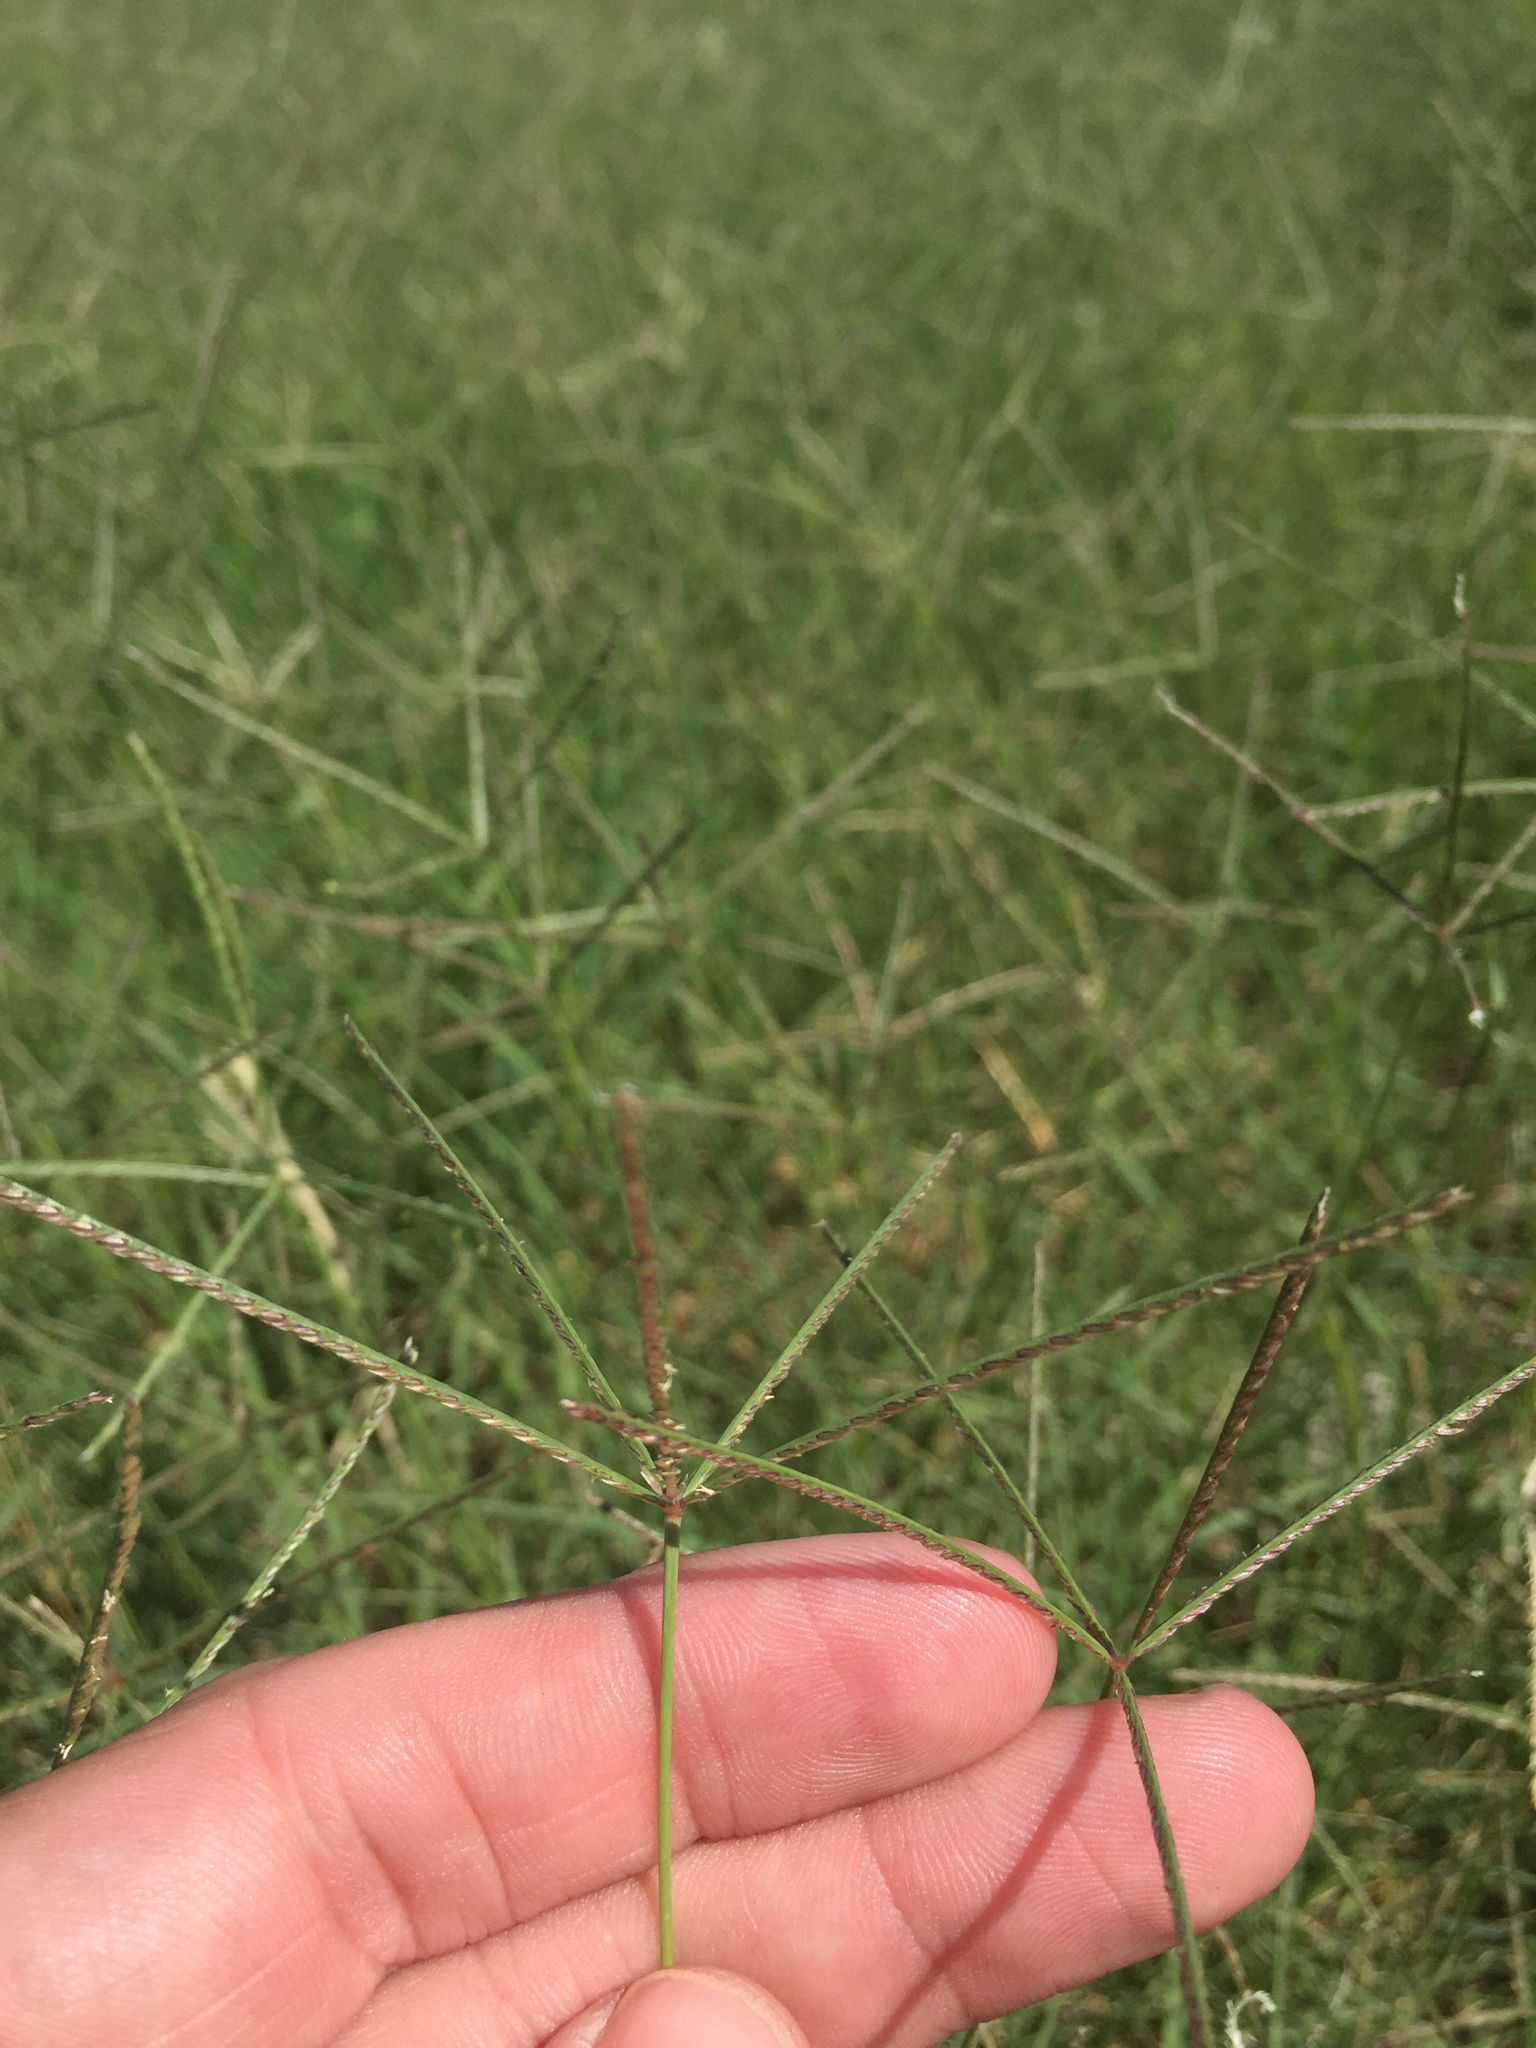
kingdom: Plantae
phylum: Tracheophyta
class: Liliopsida
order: Poales
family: Poaceae
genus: Cynodon
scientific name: Cynodon dactylon
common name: Bermuda grass
